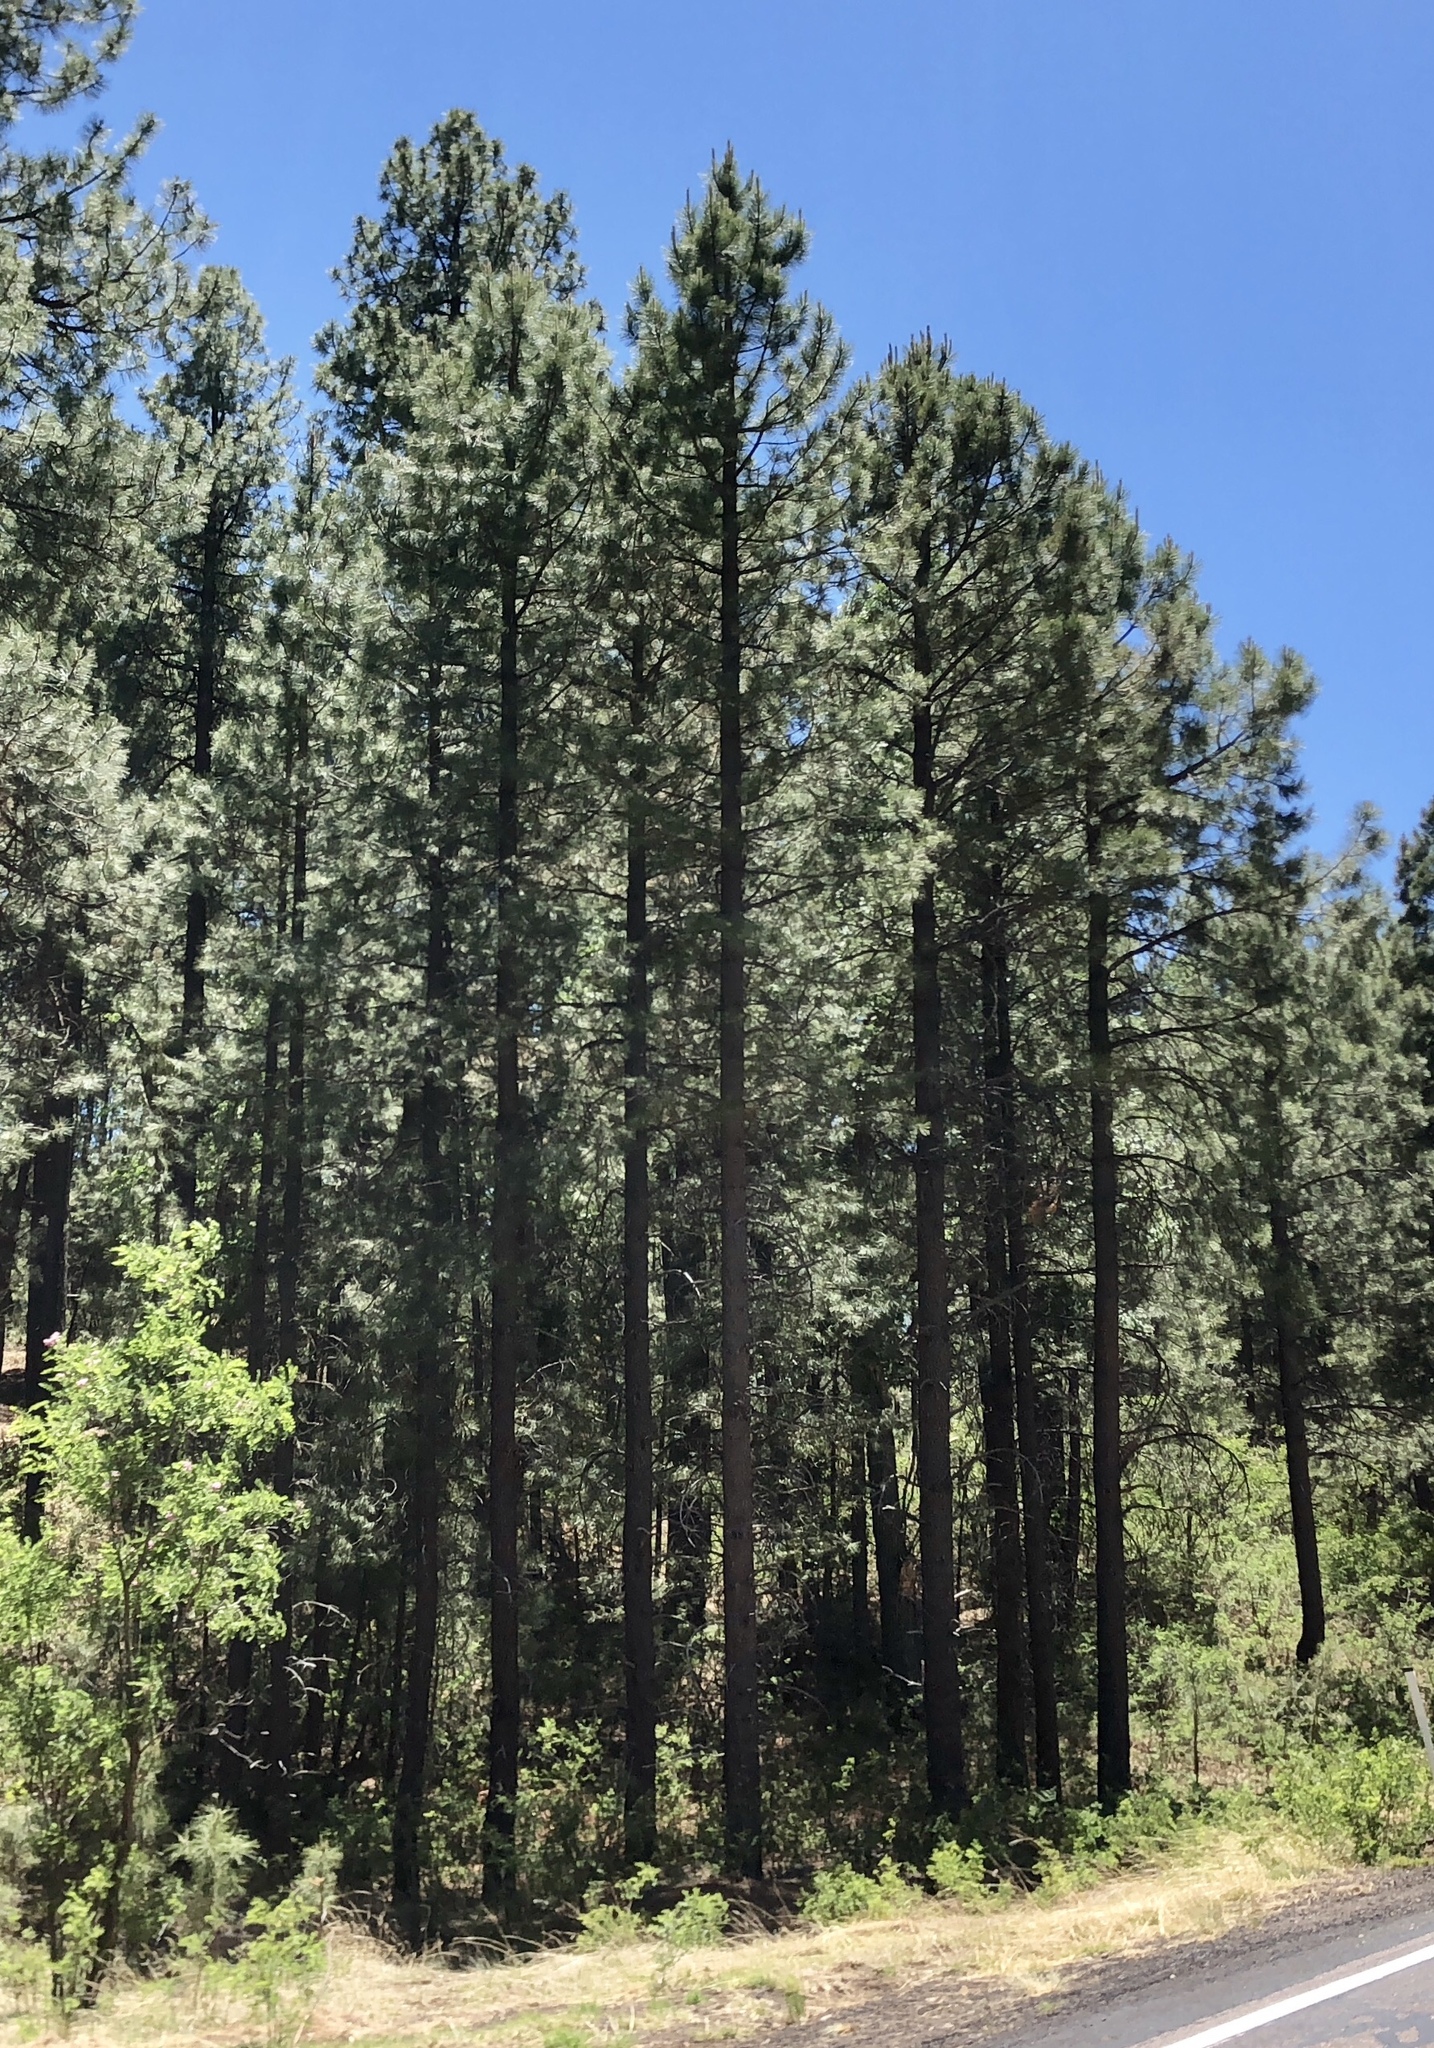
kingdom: Plantae
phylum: Tracheophyta
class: Pinopsida
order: Pinales
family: Pinaceae
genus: Pinus
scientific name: Pinus ponderosa
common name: Western yellow-pine
